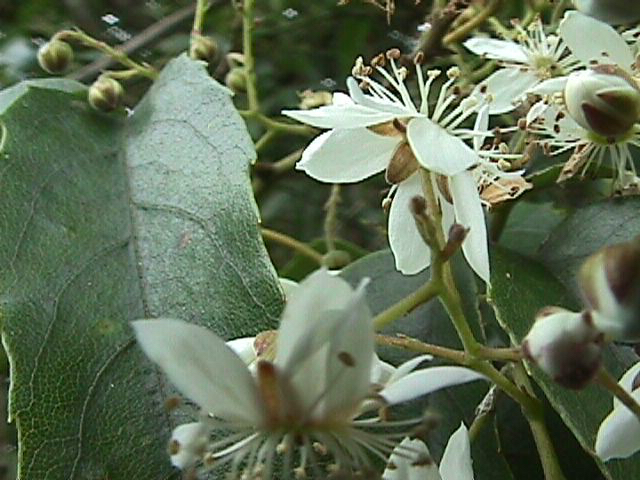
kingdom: Plantae
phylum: Tracheophyta
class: Magnoliopsida
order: Rosales
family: Rosaceae
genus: Rubus
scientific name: Rubus cissoides
